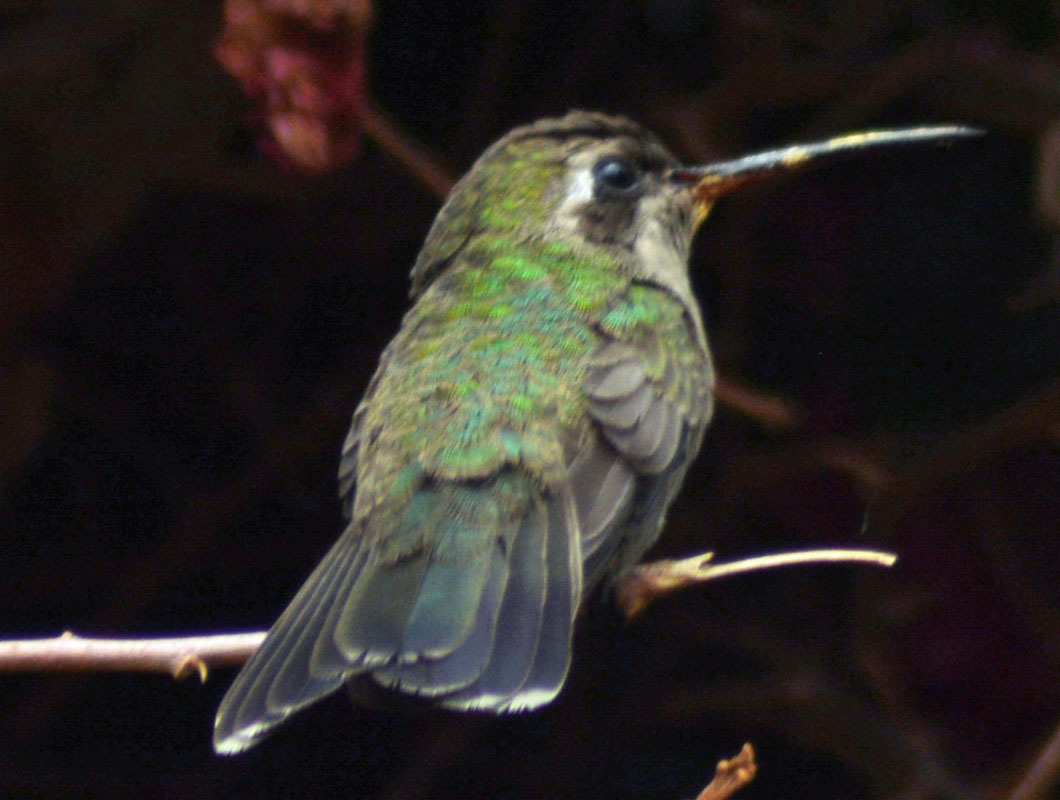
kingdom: Animalia
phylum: Chordata
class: Aves
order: Apodiformes
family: Trochilidae
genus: Cynanthus
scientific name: Cynanthus latirostris
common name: Broad-billed hummingbird
